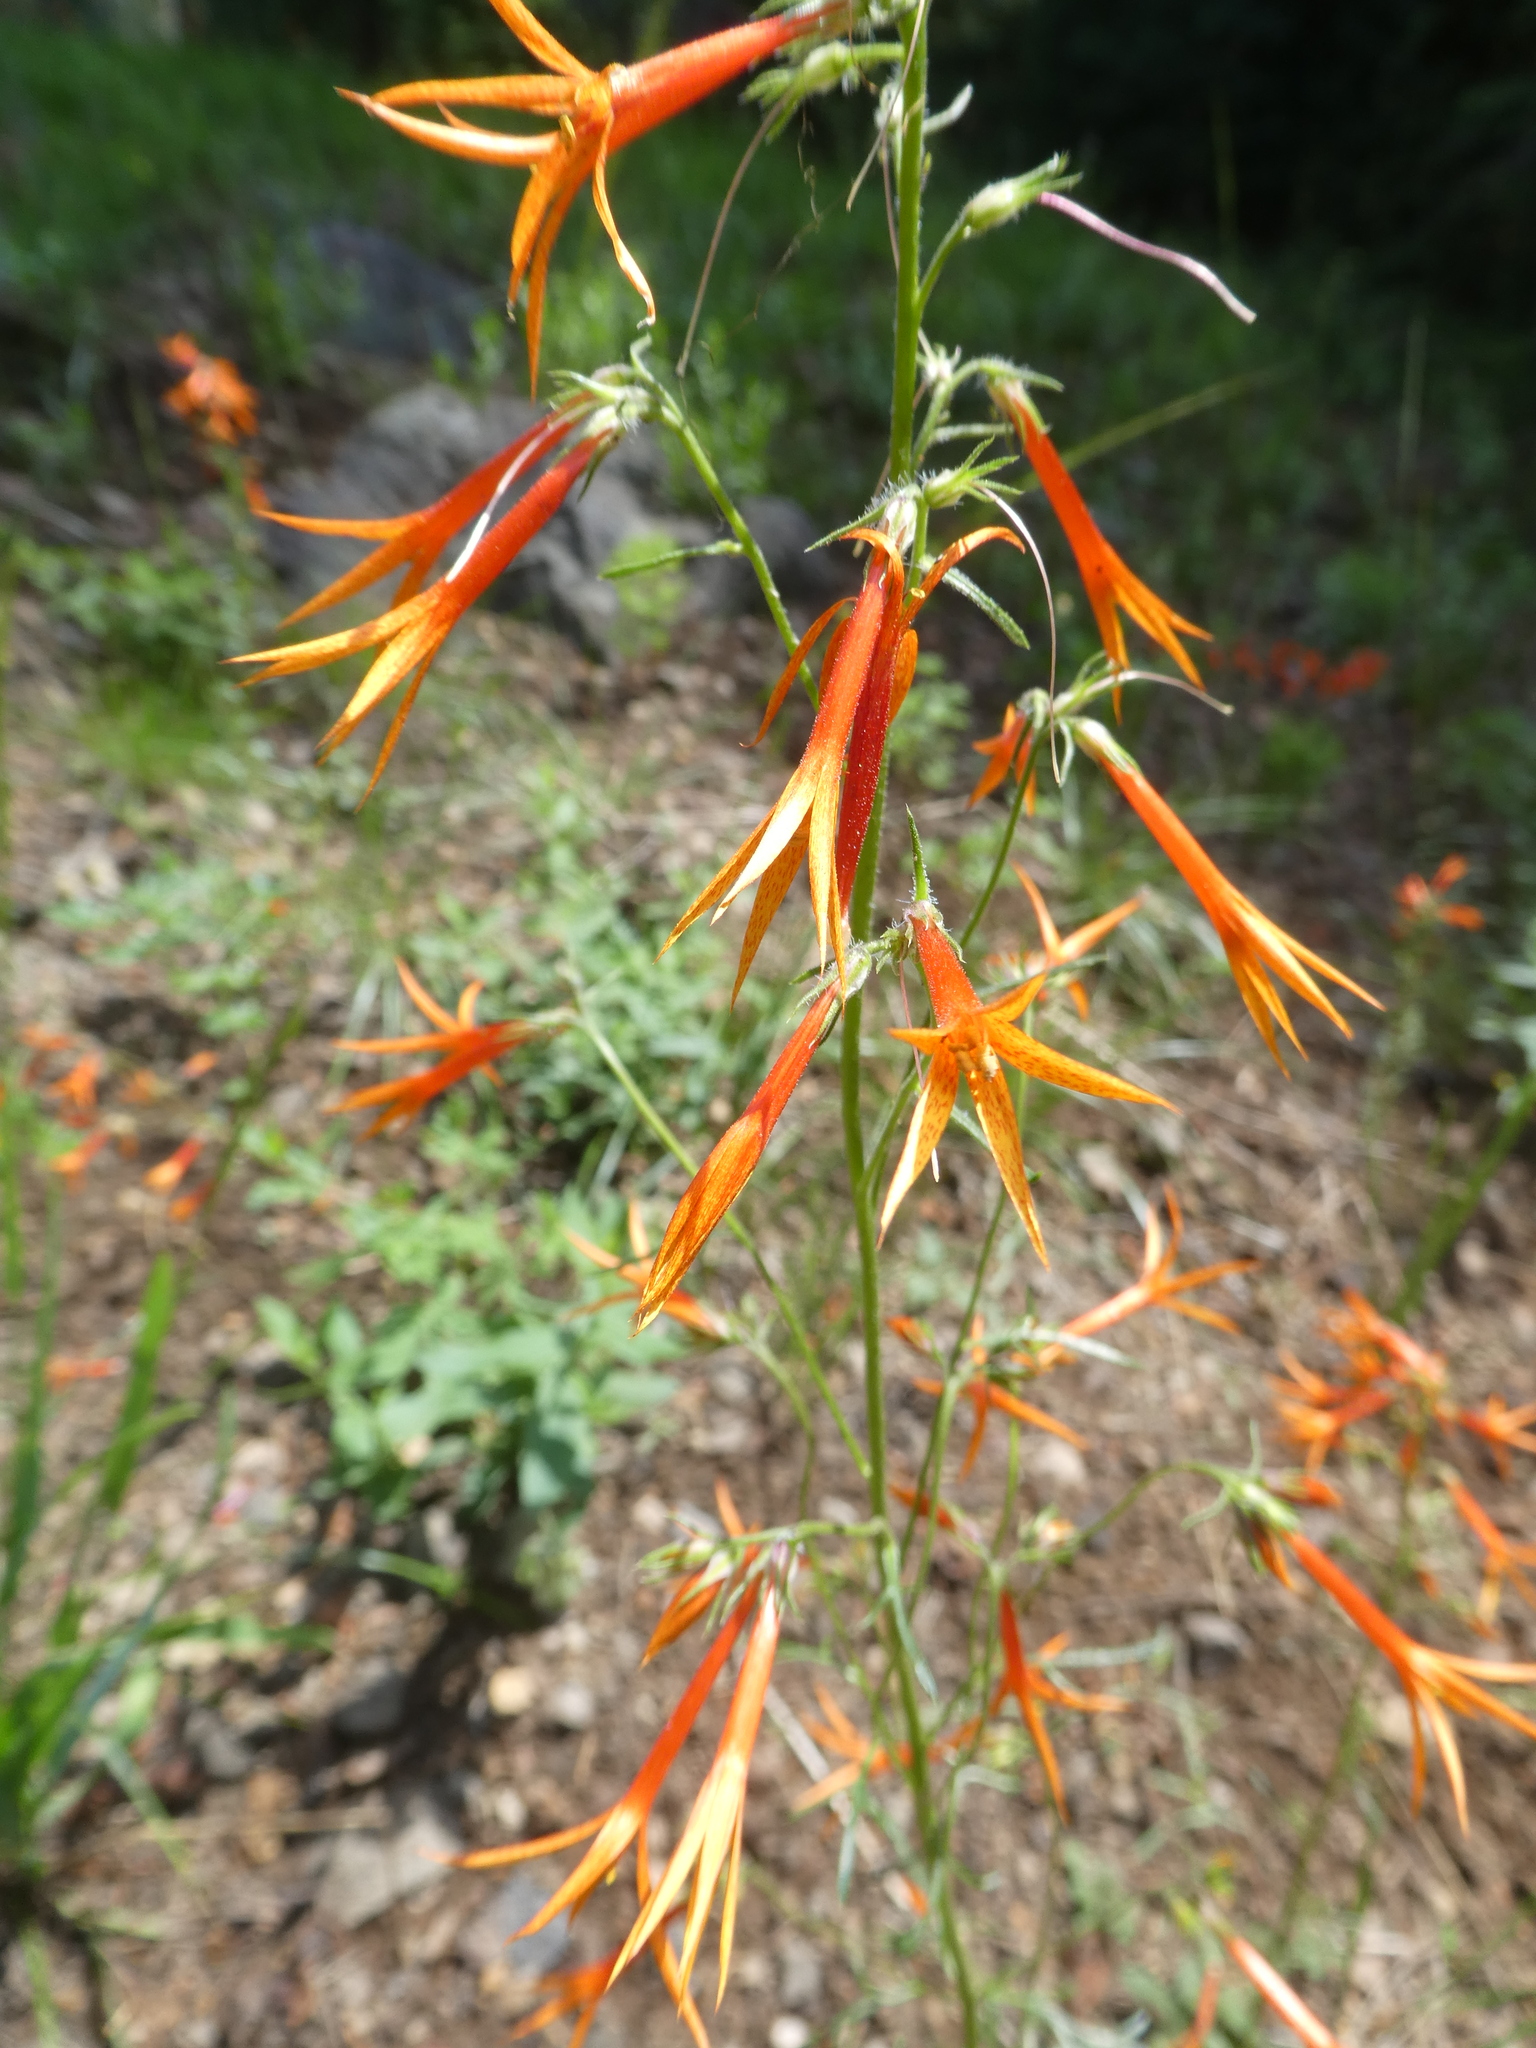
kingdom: Plantae
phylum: Tracheophyta
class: Magnoliopsida
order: Ericales
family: Polemoniaceae
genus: Ipomopsis
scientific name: Ipomopsis aggregata
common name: Scarlet gilia
